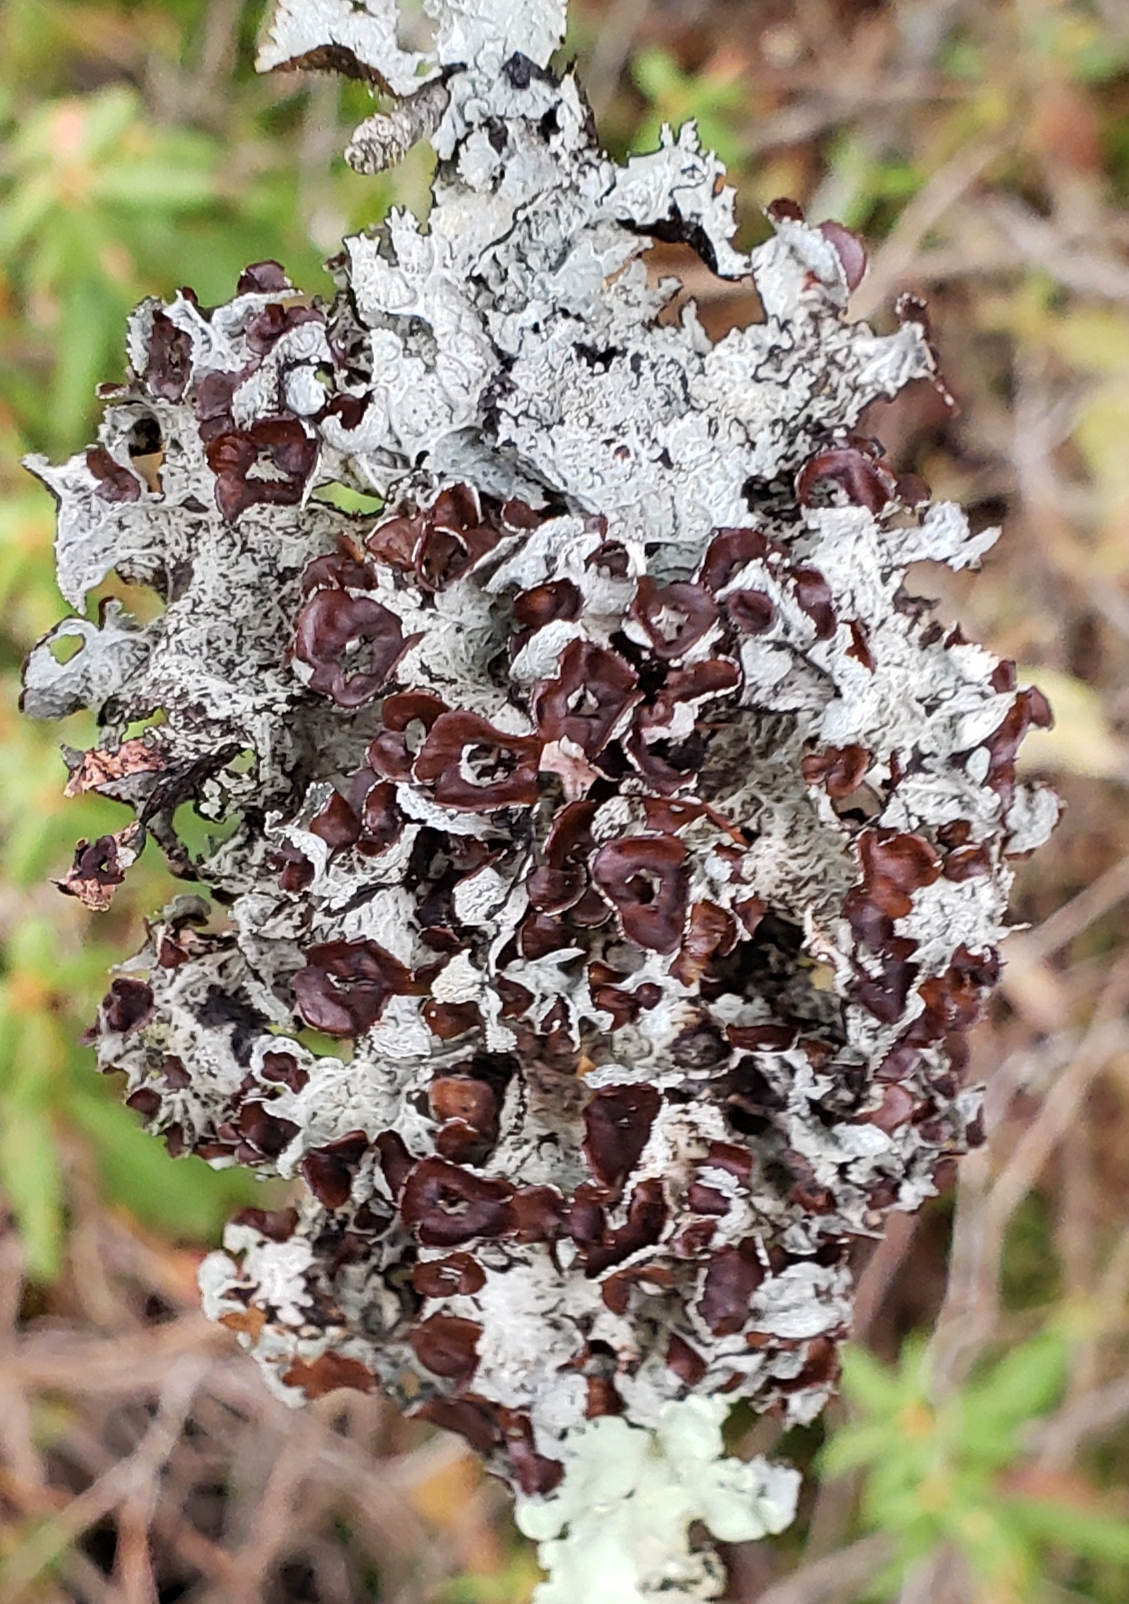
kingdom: Fungi
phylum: Ascomycota
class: Lecanoromycetes
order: Lecanorales
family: Parmeliaceae
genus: Platismatia
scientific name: Platismatia tuckermanii
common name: Crumpled rag lichen
